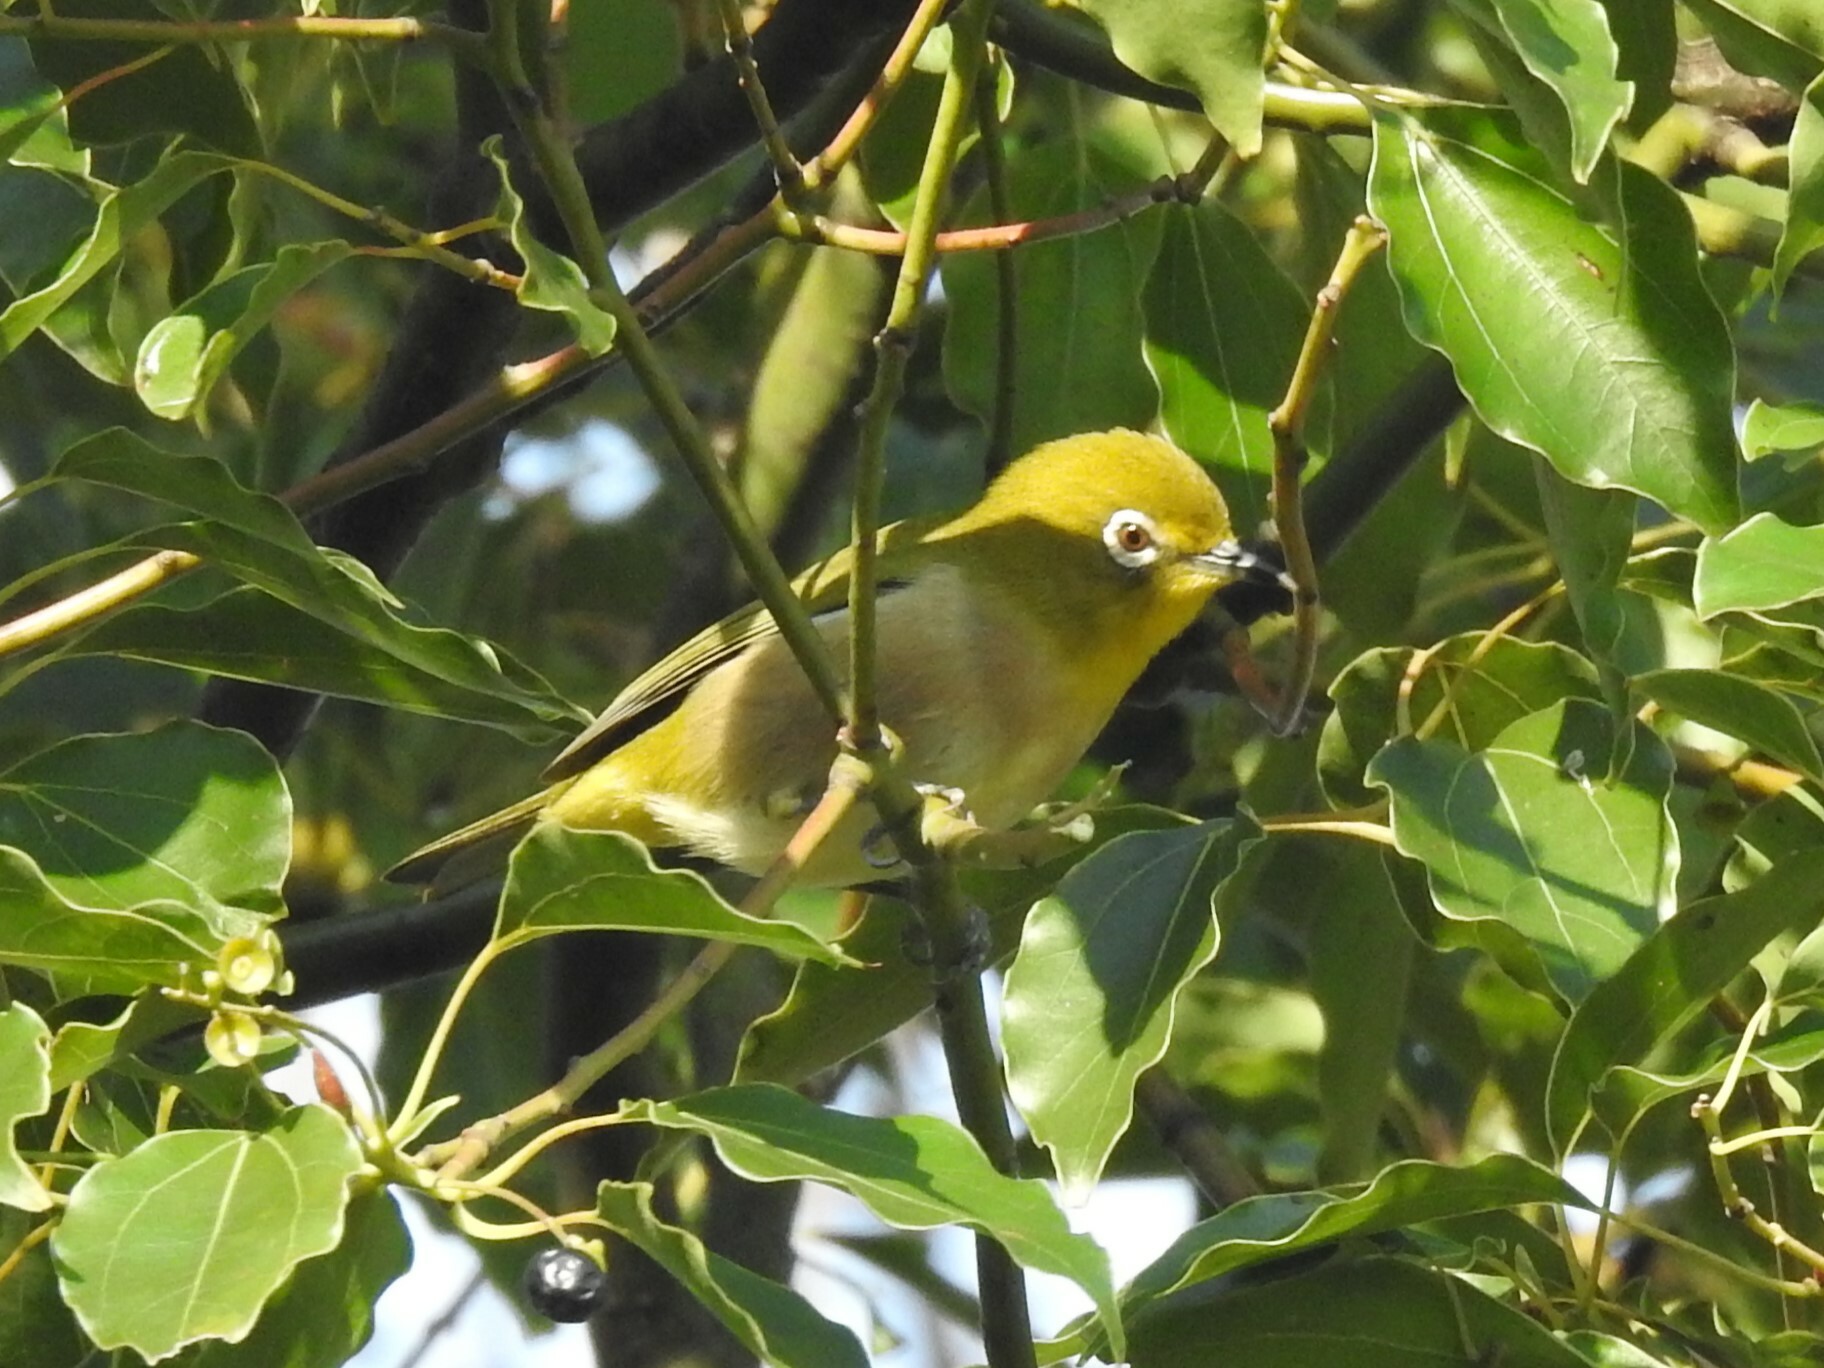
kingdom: Animalia
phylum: Chordata
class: Aves
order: Passeriformes
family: Zosteropidae
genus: Zosterops
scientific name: Zosterops japonicus
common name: Japanese white-eye
